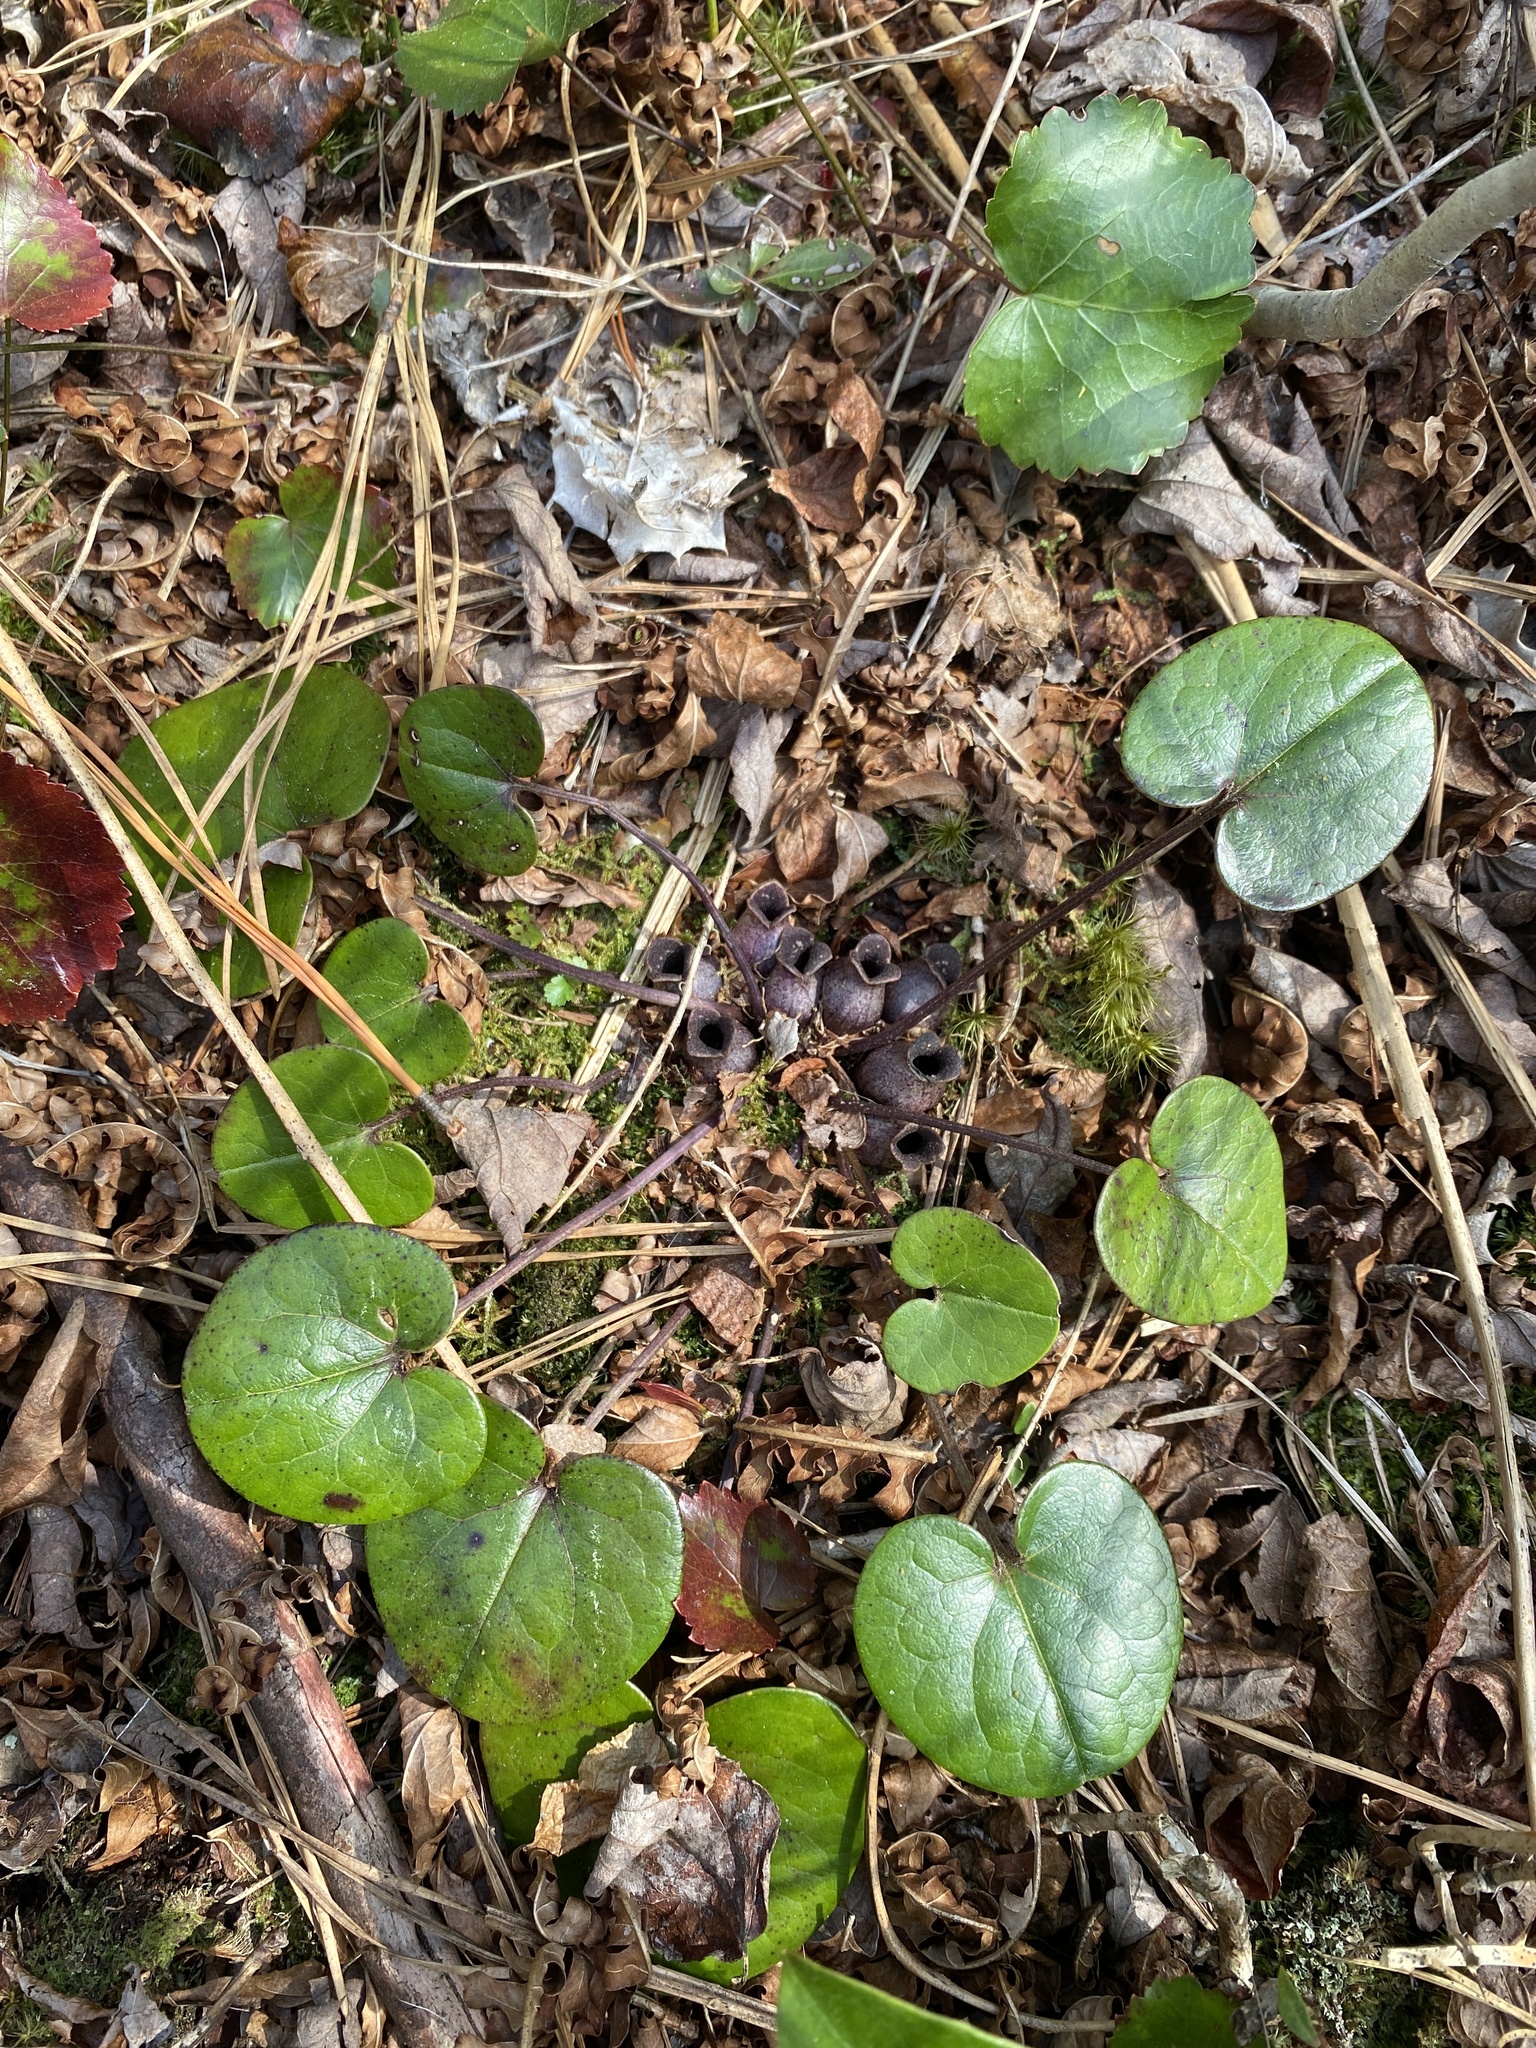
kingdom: Plantae
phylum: Tracheophyta
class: Magnoliopsida
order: Piperales
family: Aristolochiaceae
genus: Hexastylis
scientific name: Hexastylis rhombiformis
